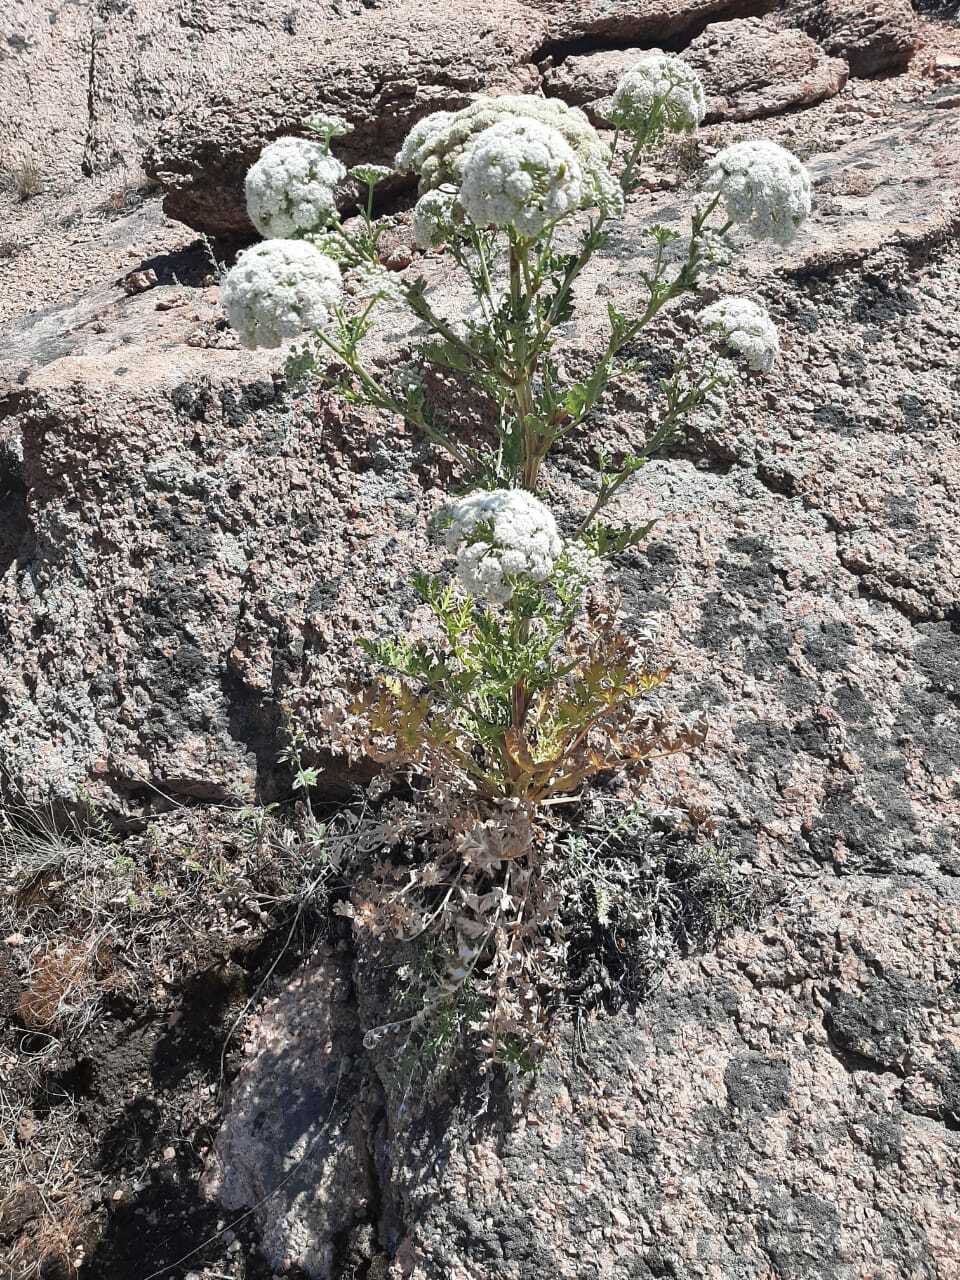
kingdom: Plantae
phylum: Tracheophyta
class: Magnoliopsida
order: Apiales
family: Apiaceae
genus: Seseli
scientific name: Seseli buchtormense
